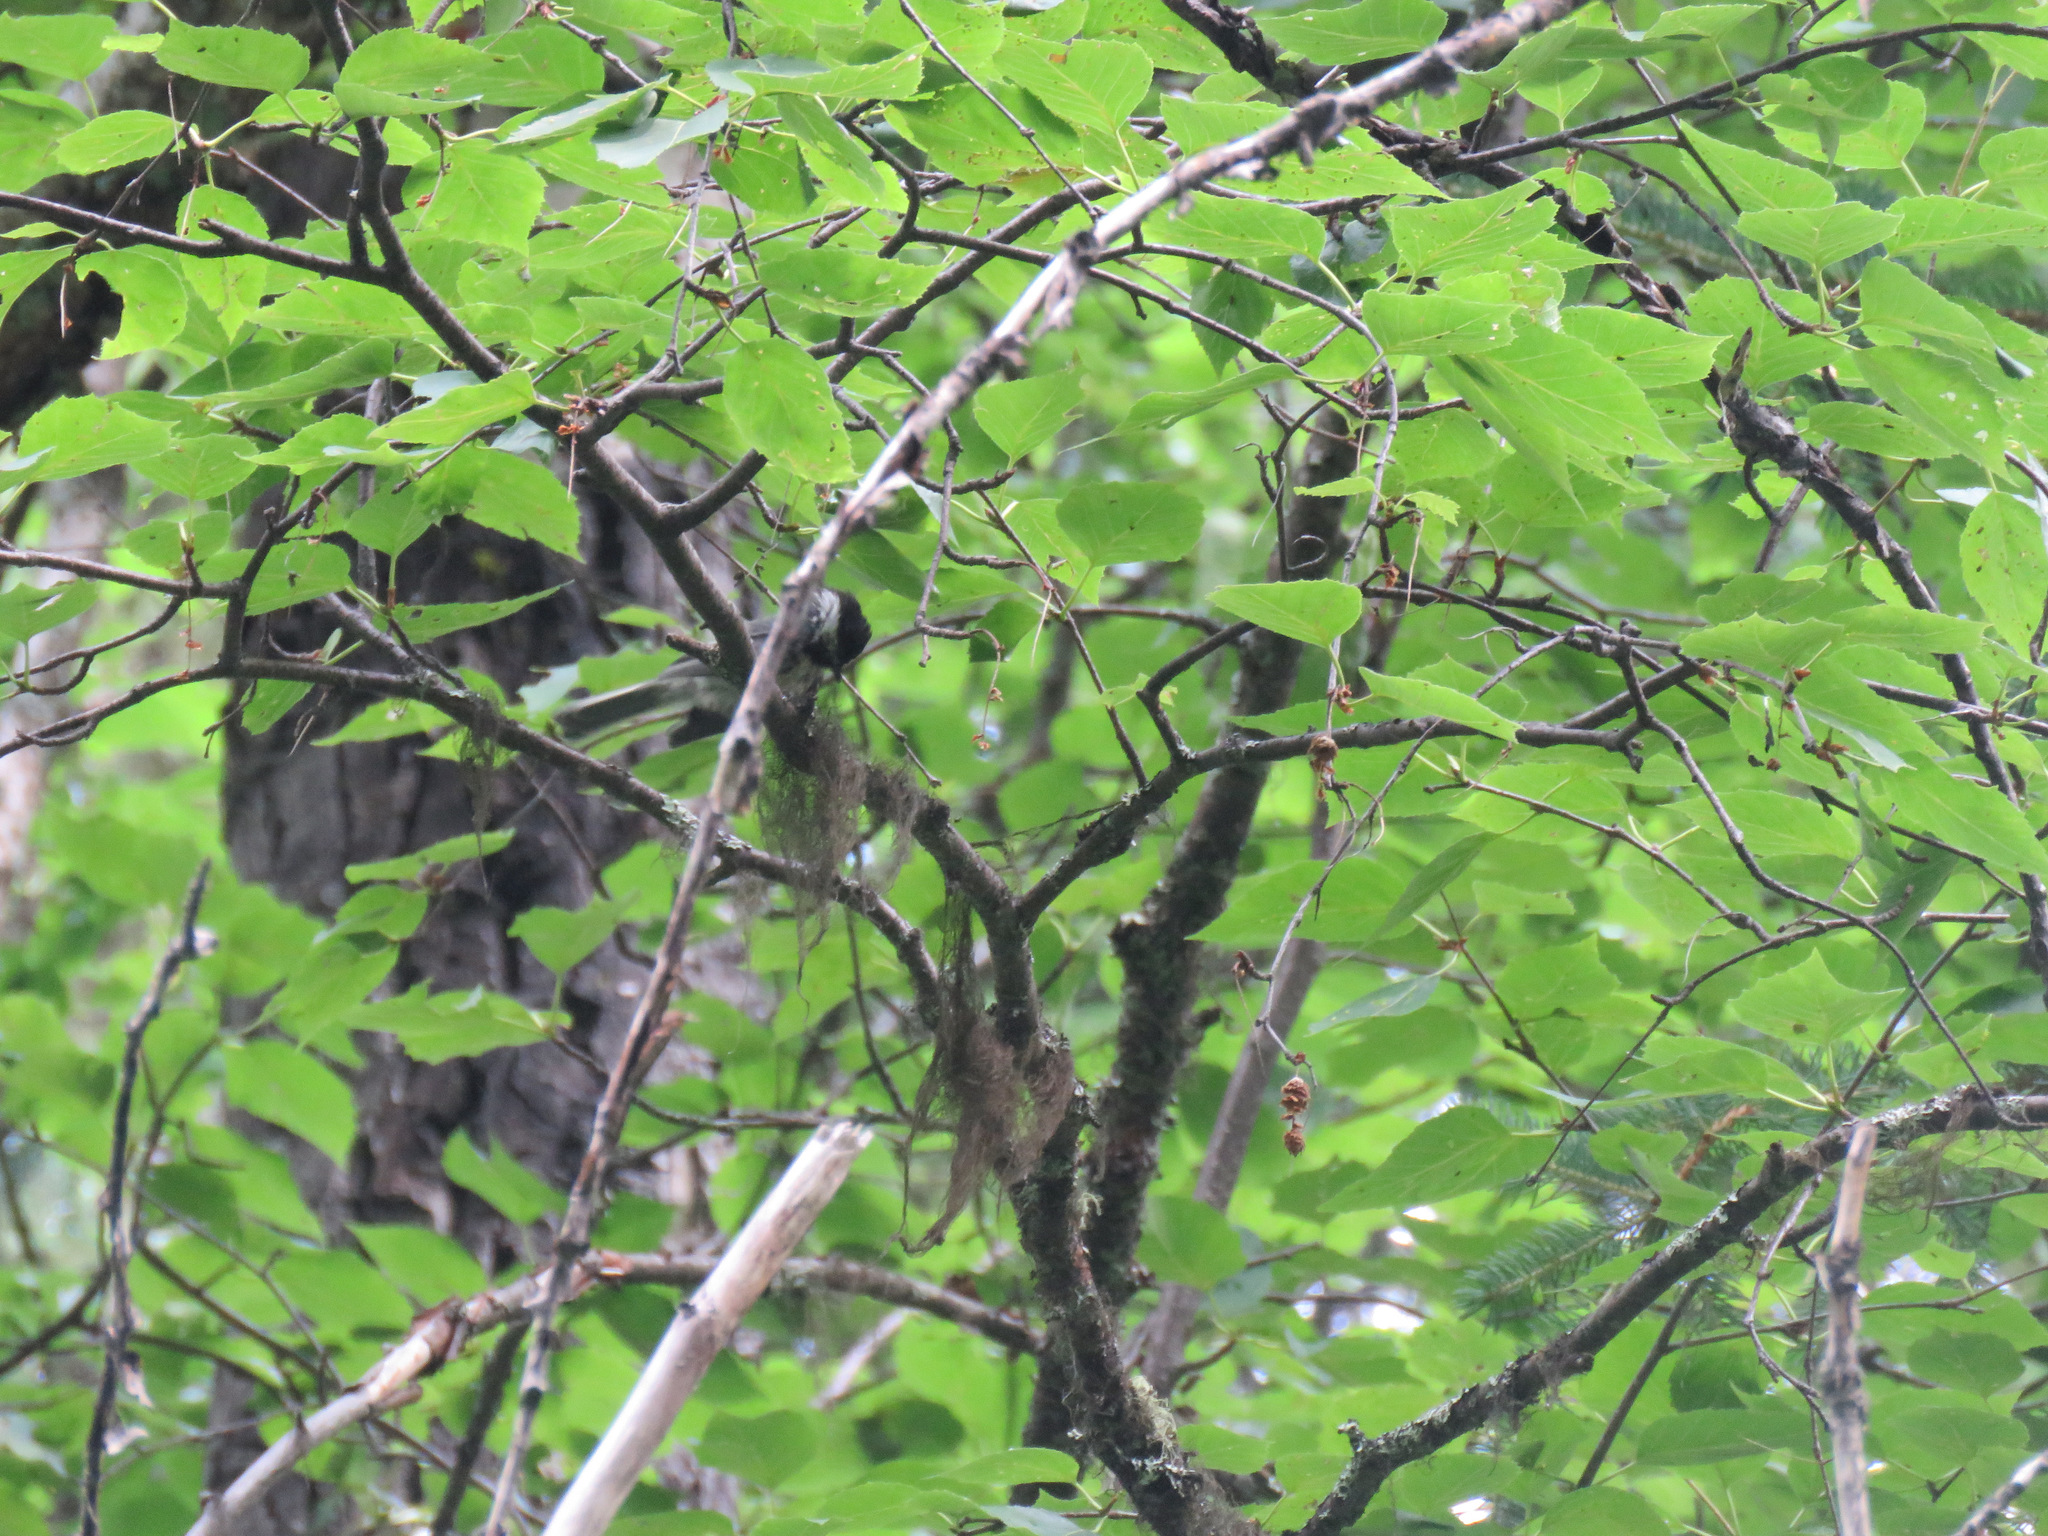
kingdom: Animalia
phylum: Chordata
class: Aves
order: Passeriformes
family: Paridae
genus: Poecile
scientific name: Poecile atricapillus
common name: Black-capped chickadee
